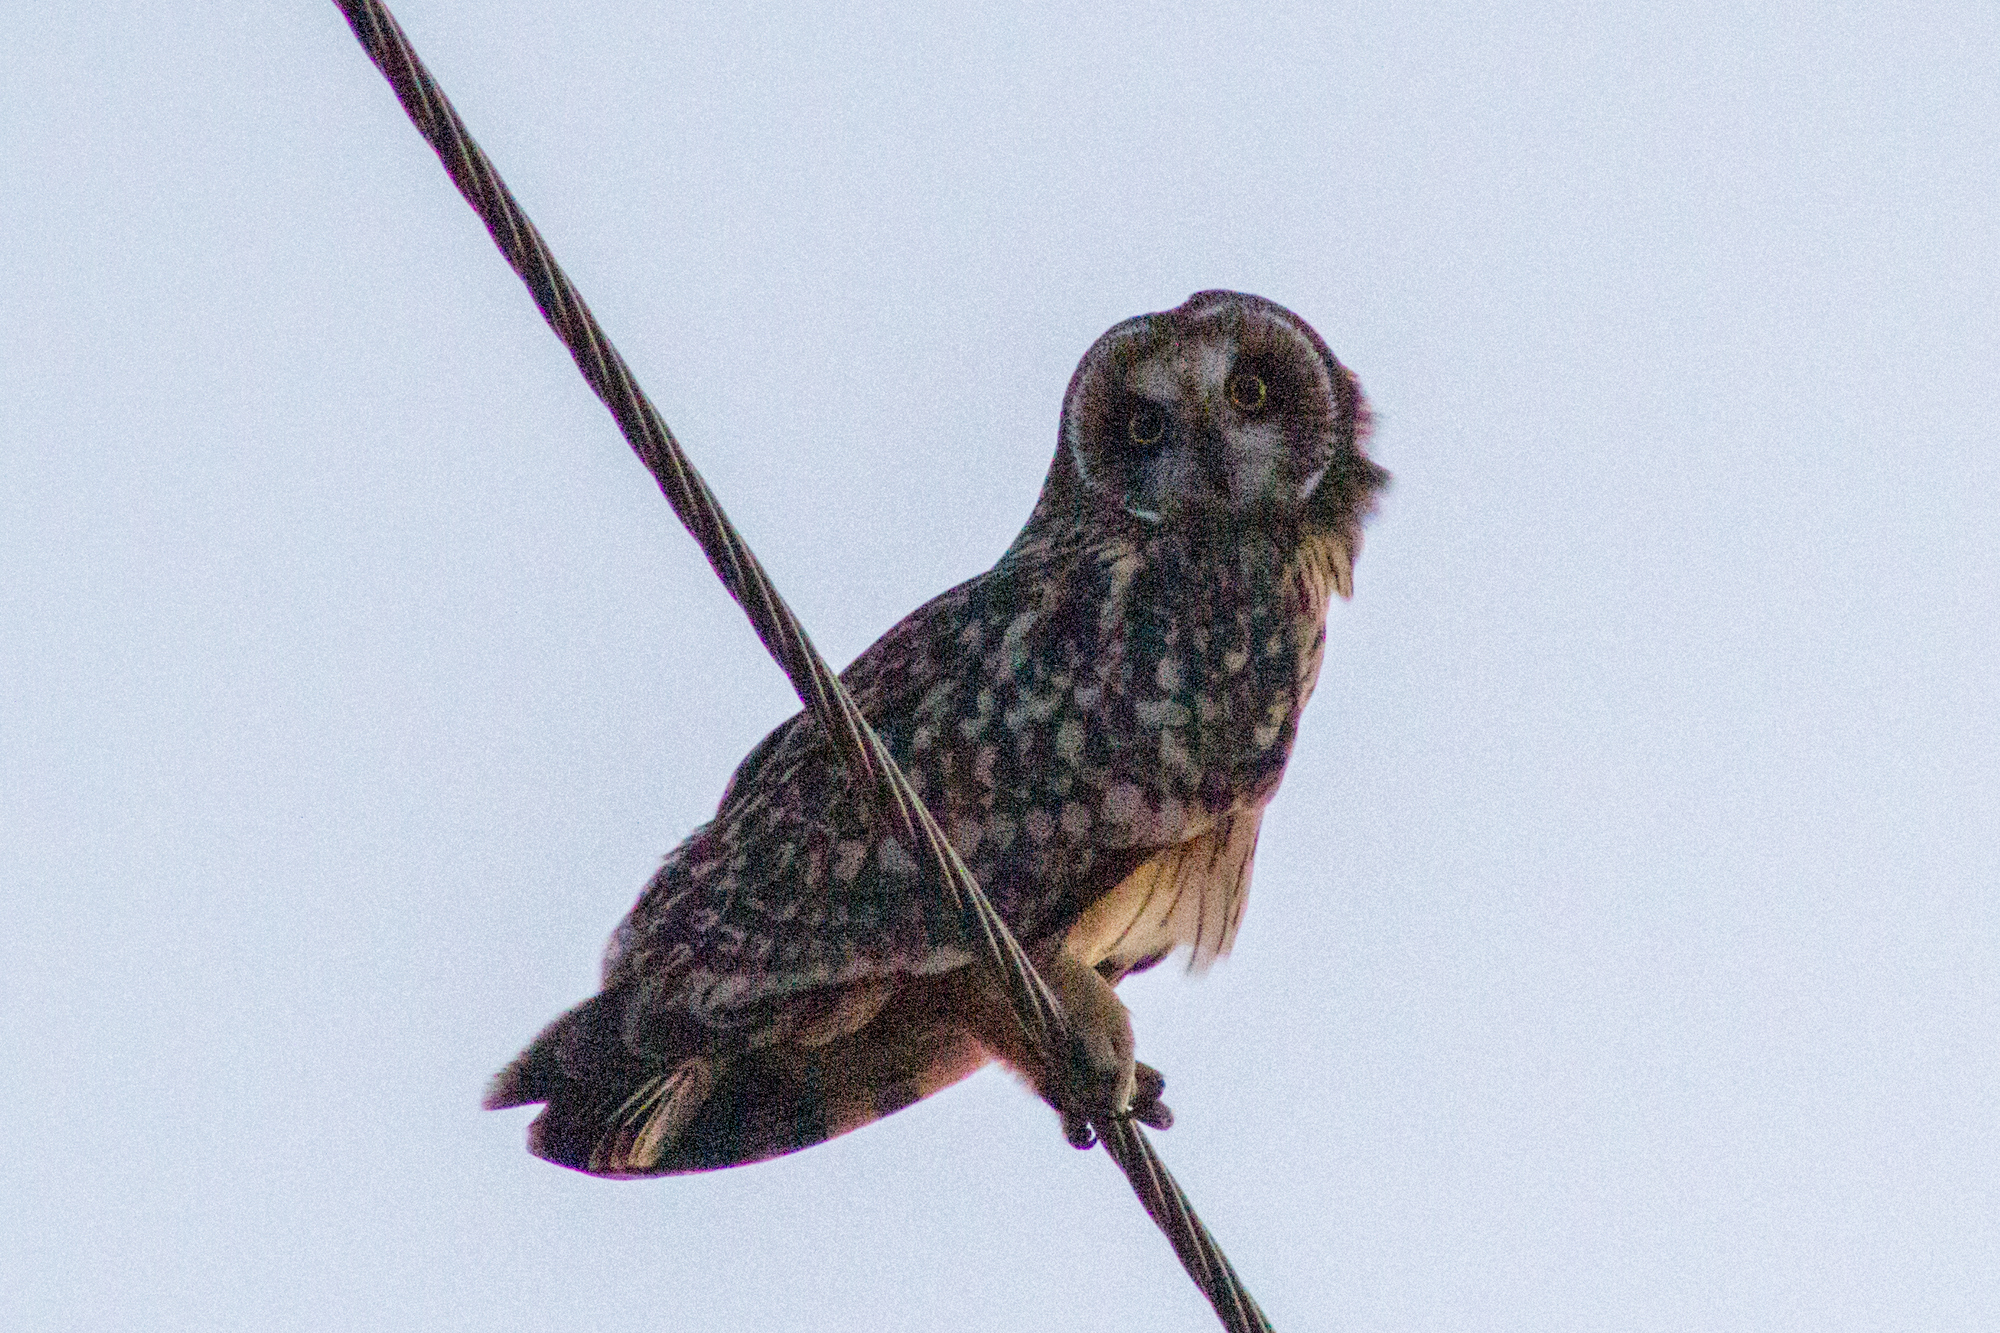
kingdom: Animalia
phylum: Chordata
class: Aves
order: Strigiformes
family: Strigidae
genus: Asio
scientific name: Asio flammeus
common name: Short-eared owl
